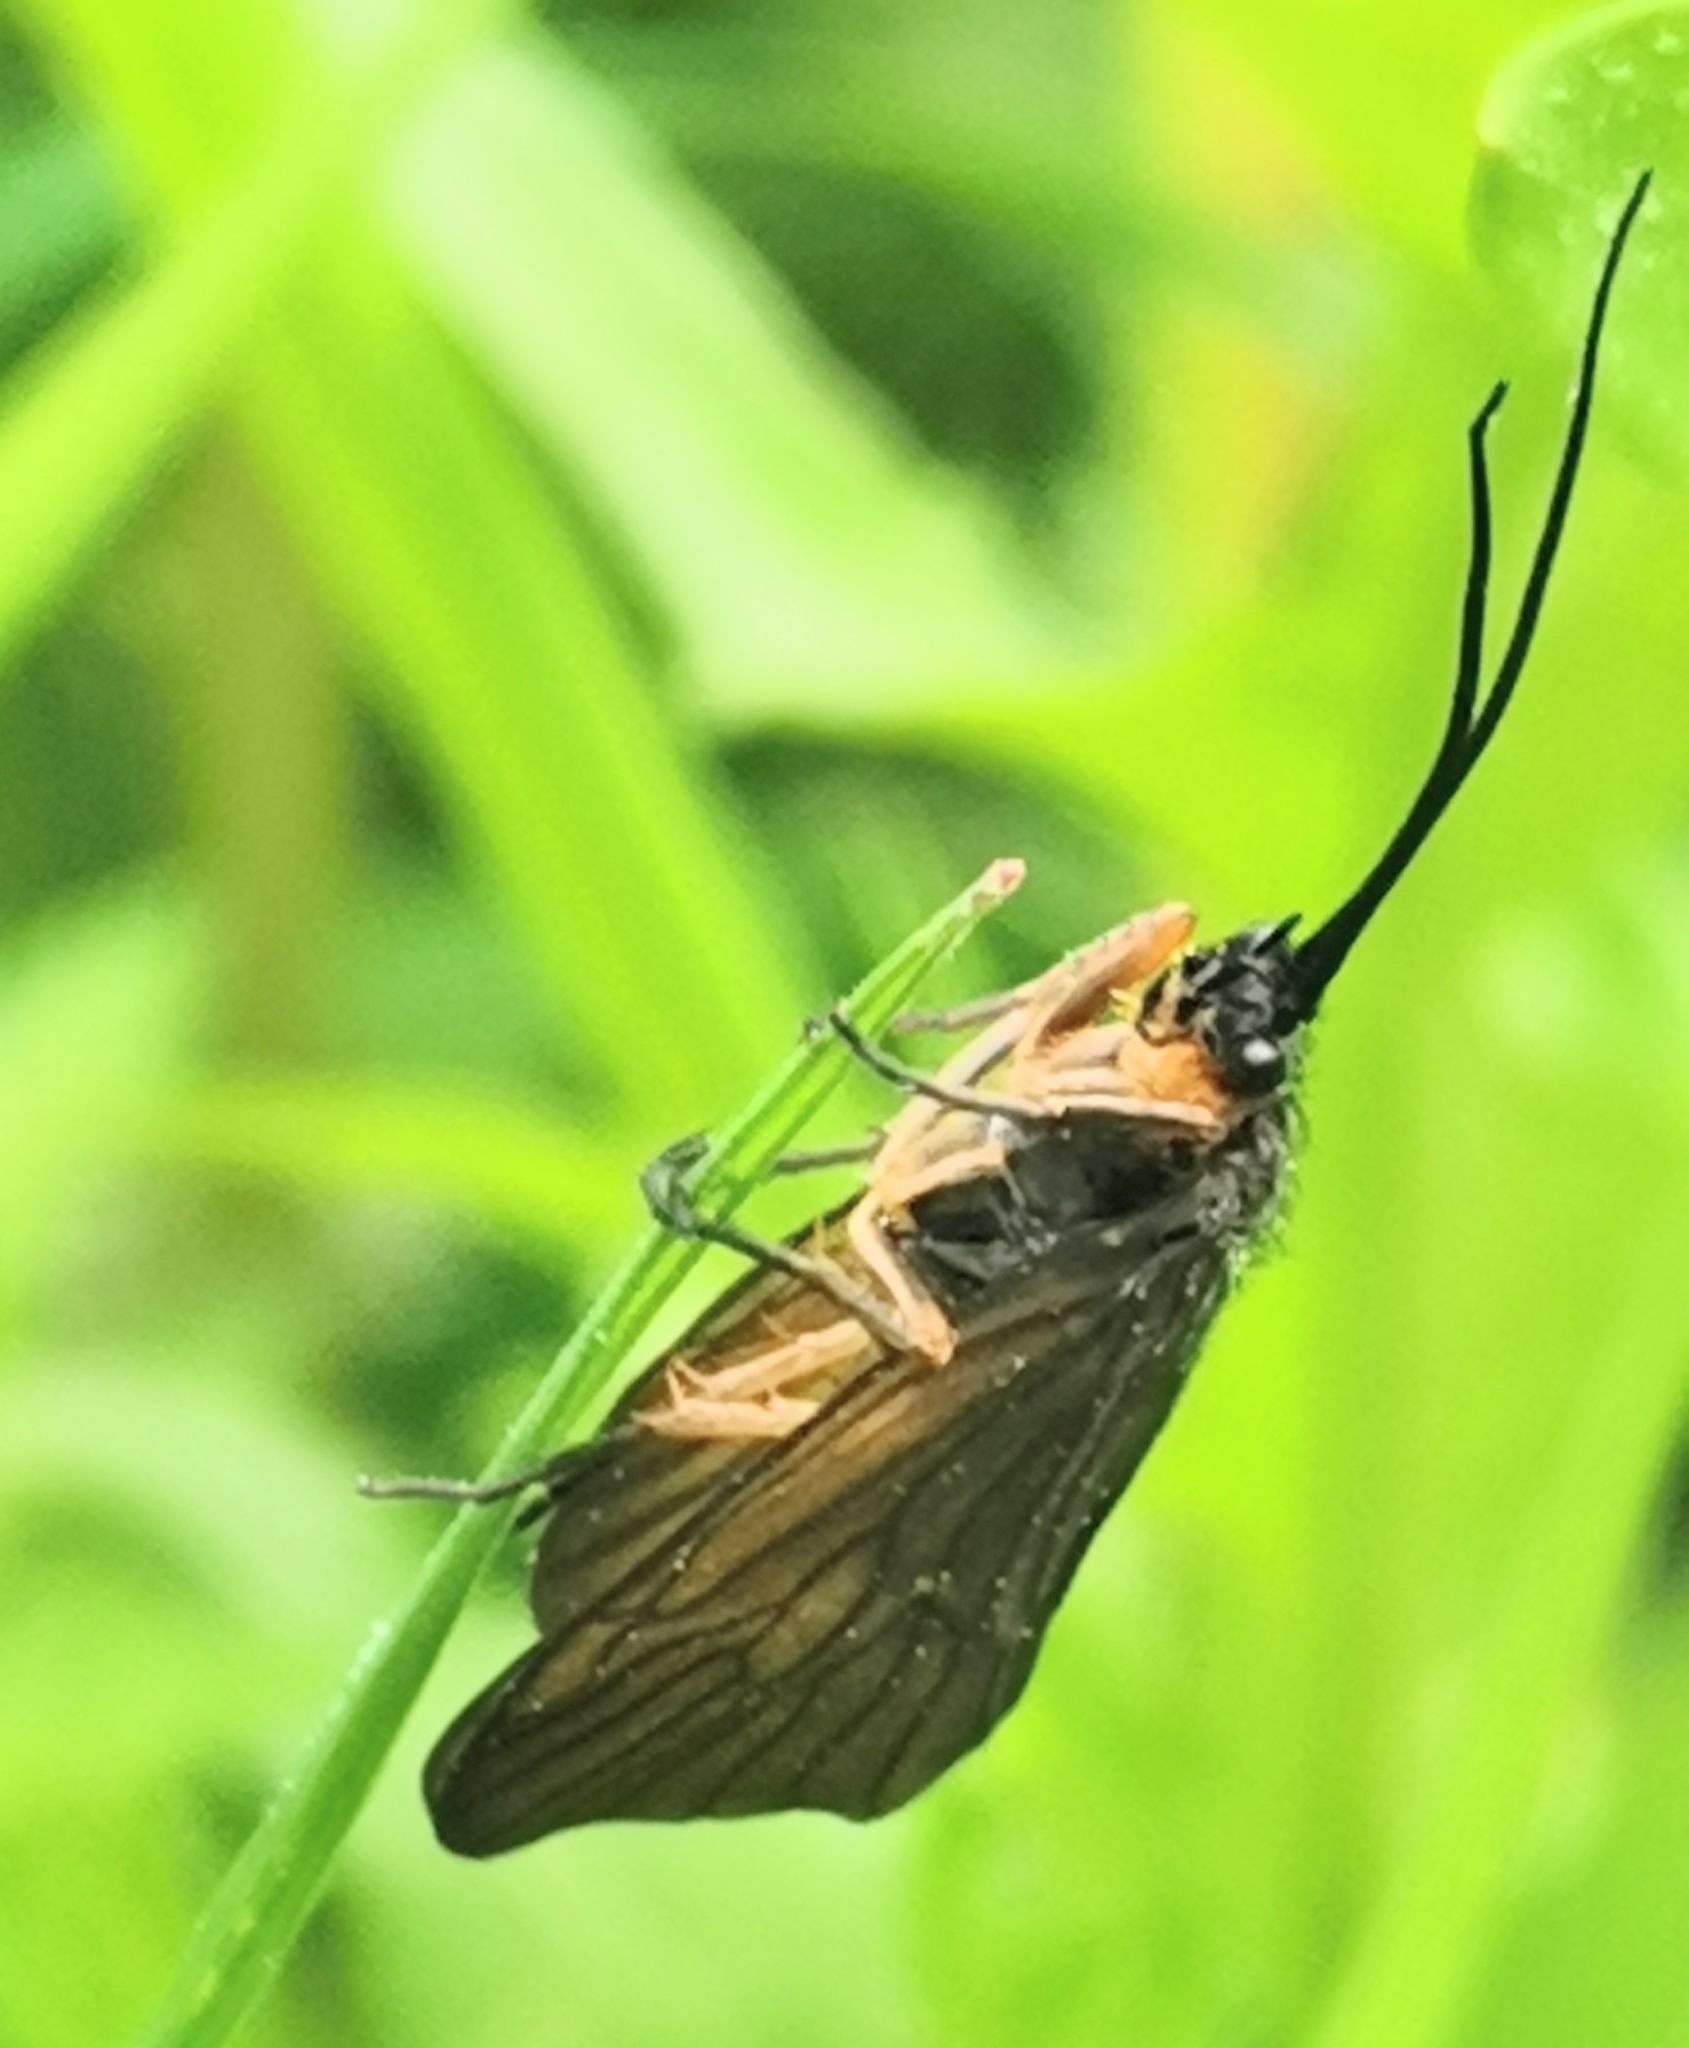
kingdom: Animalia
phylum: Arthropoda
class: Insecta
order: Trichoptera
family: Phryganeidae
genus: Oligotricha
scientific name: Oligotricha striata
